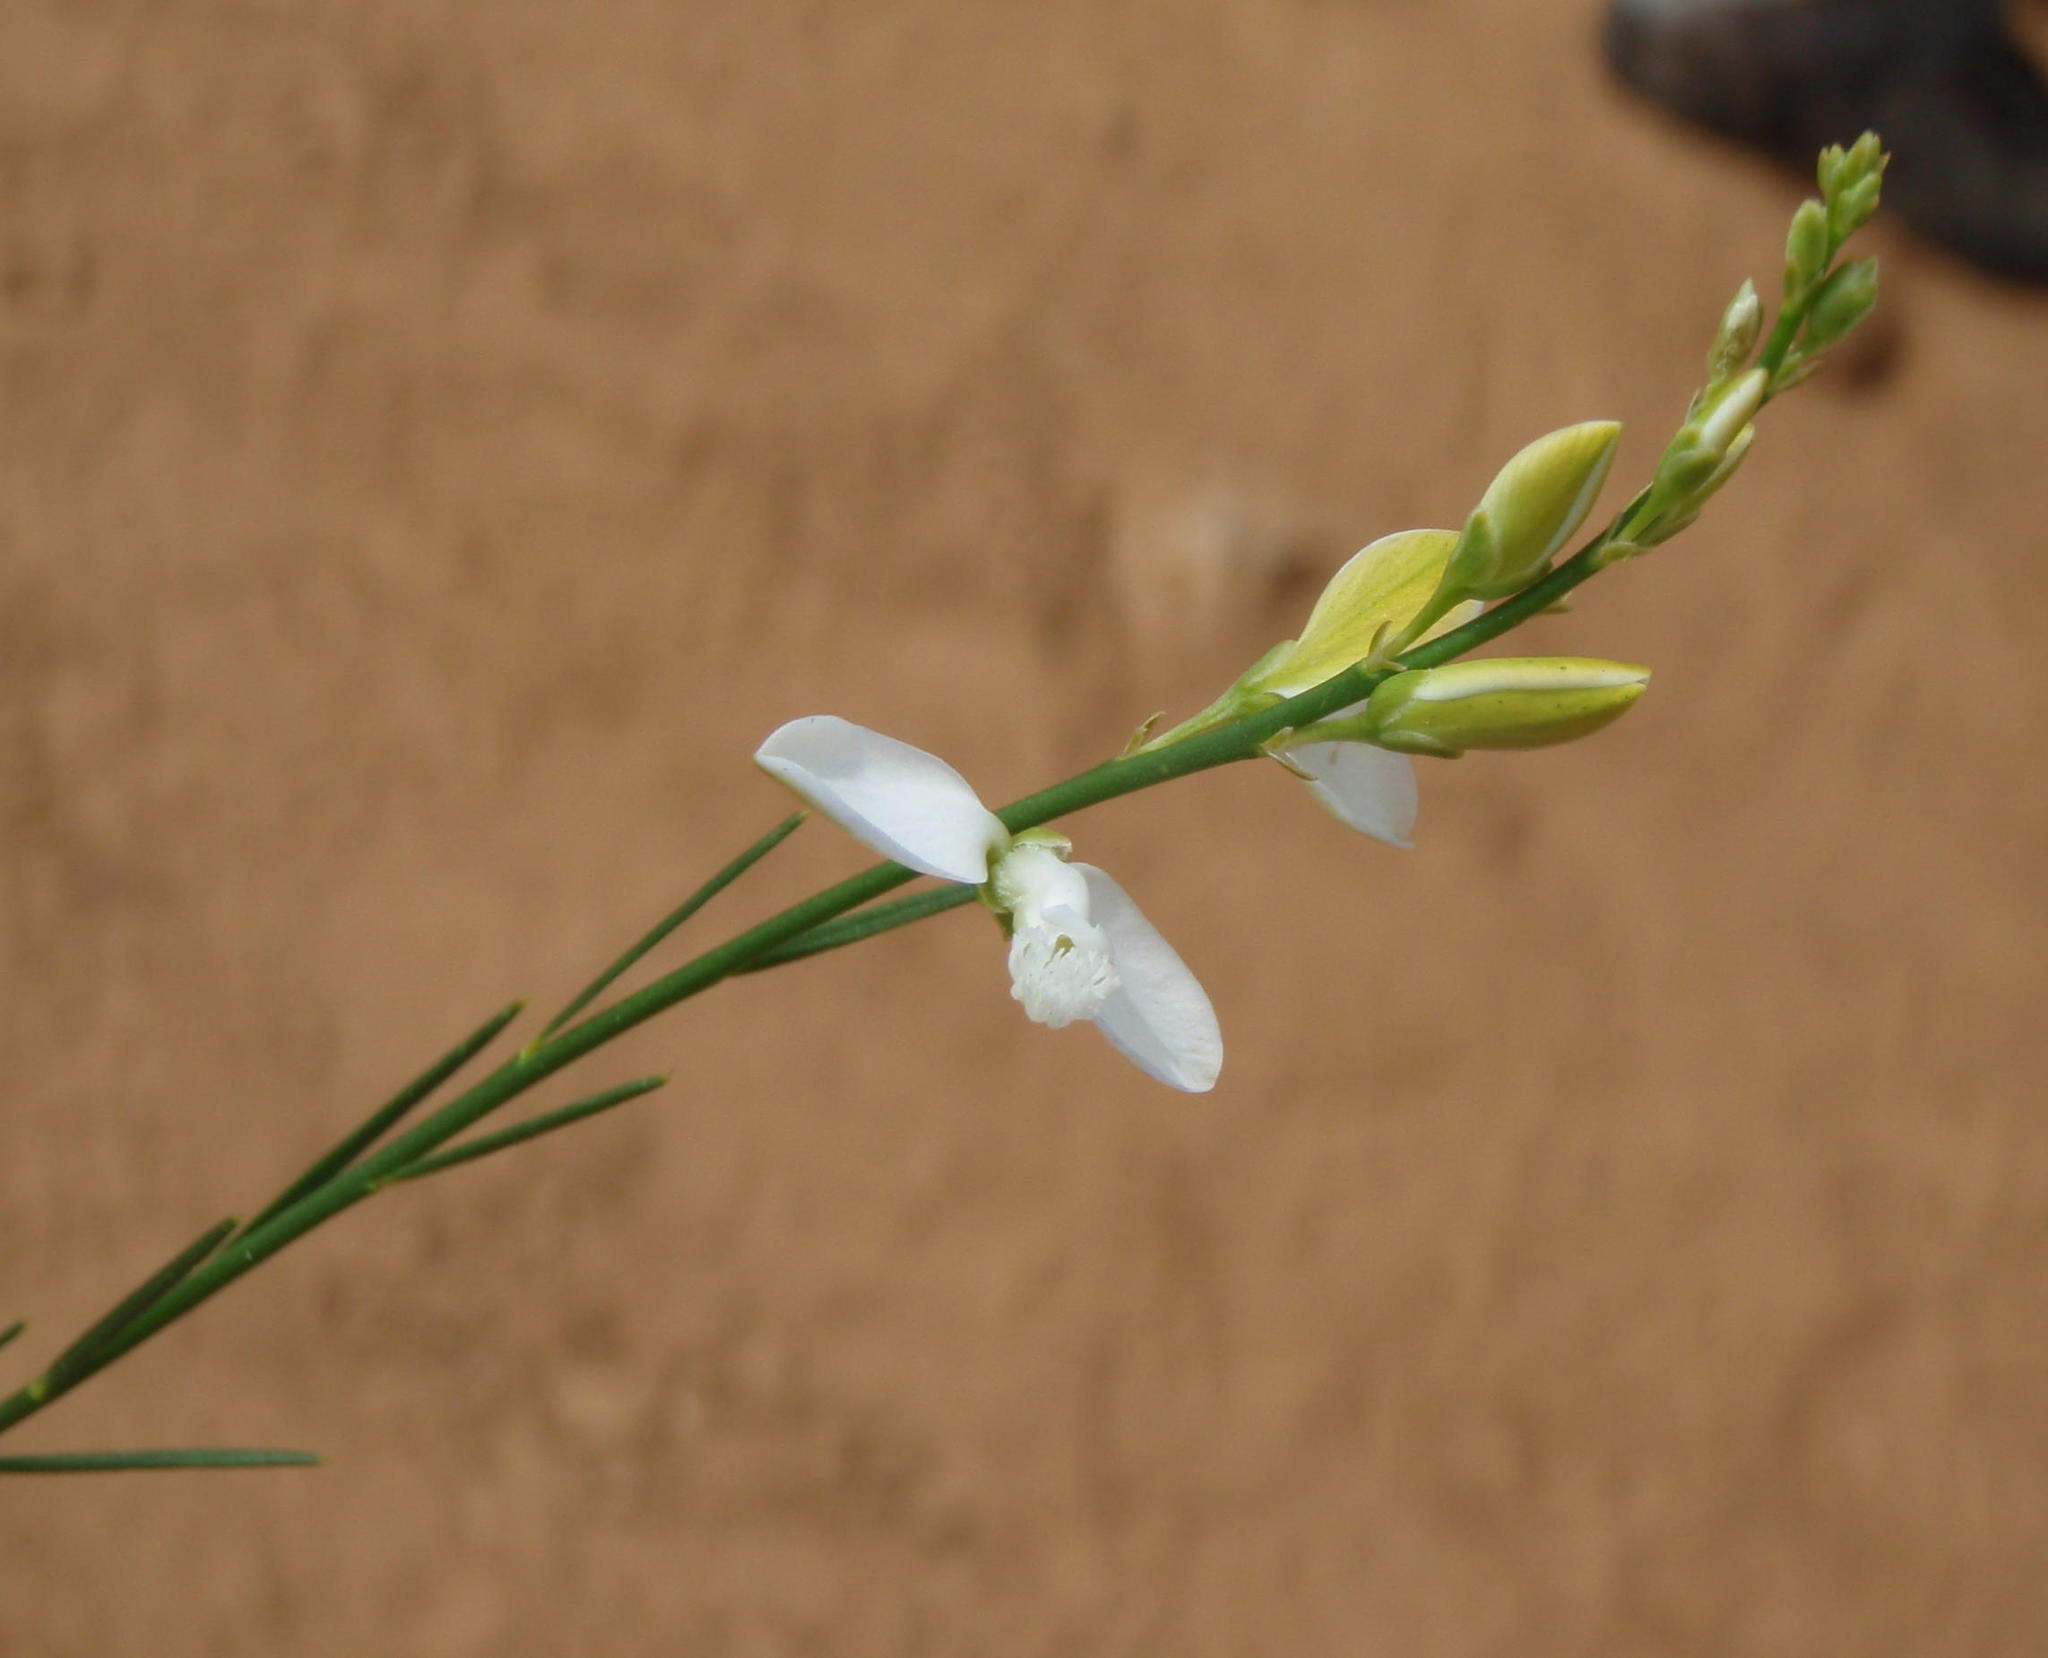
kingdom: Plantae
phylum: Tracheophyta
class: Magnoliopsida
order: Fabales
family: Polygalaceae
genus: Polygala
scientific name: Polygala garcini
